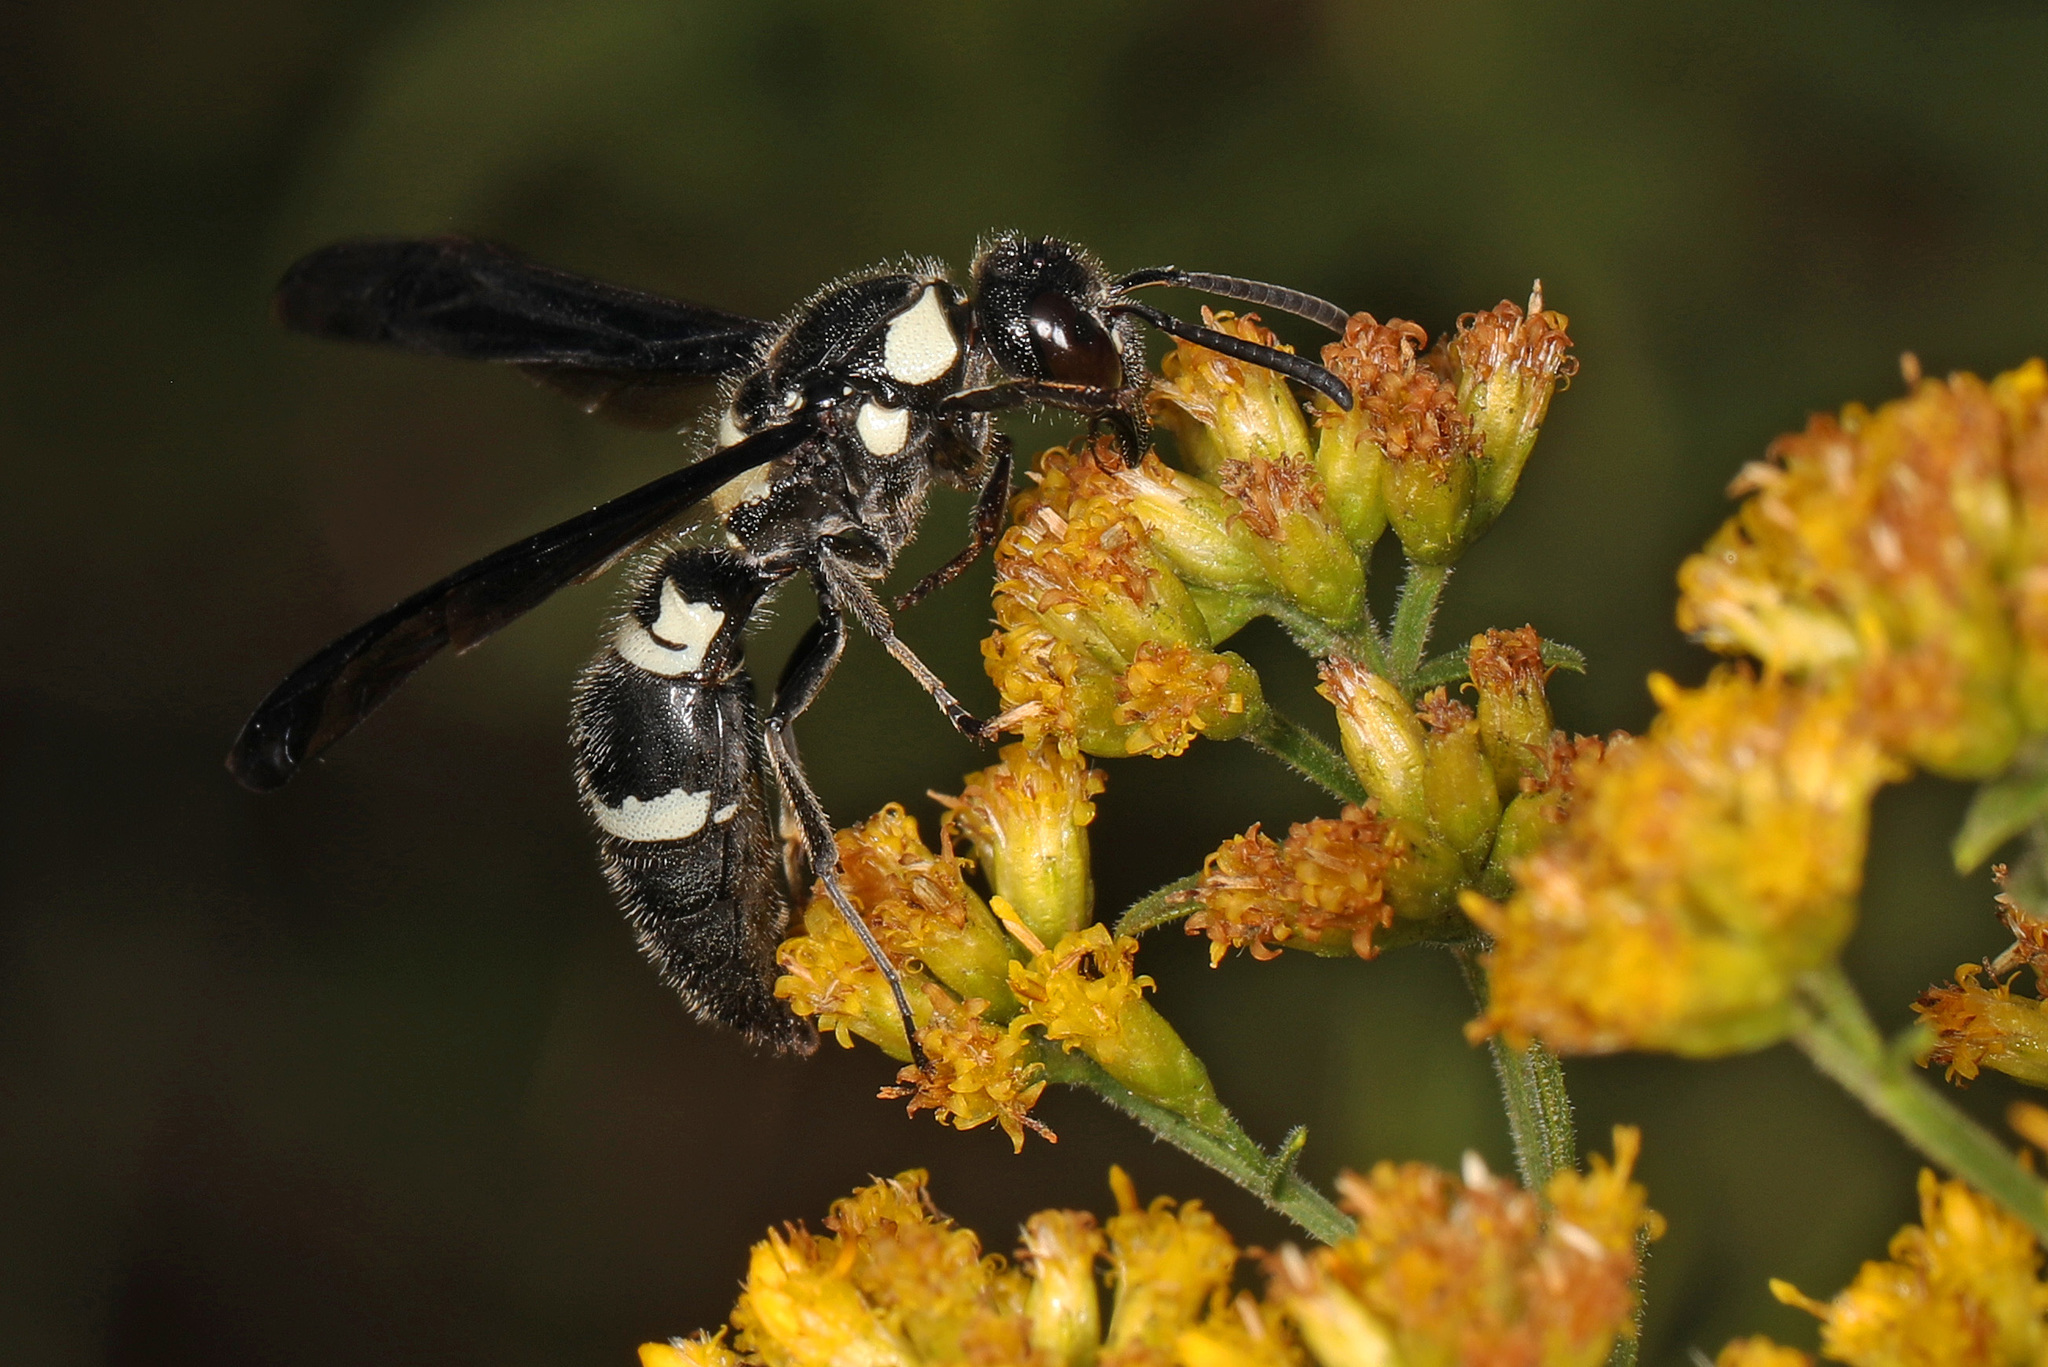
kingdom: Animalia
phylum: Arthropoda
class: Insecta
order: Hymenoptera
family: Eumenidae
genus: Pseudodynerus
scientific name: Pseudodynerus quadrisectus
